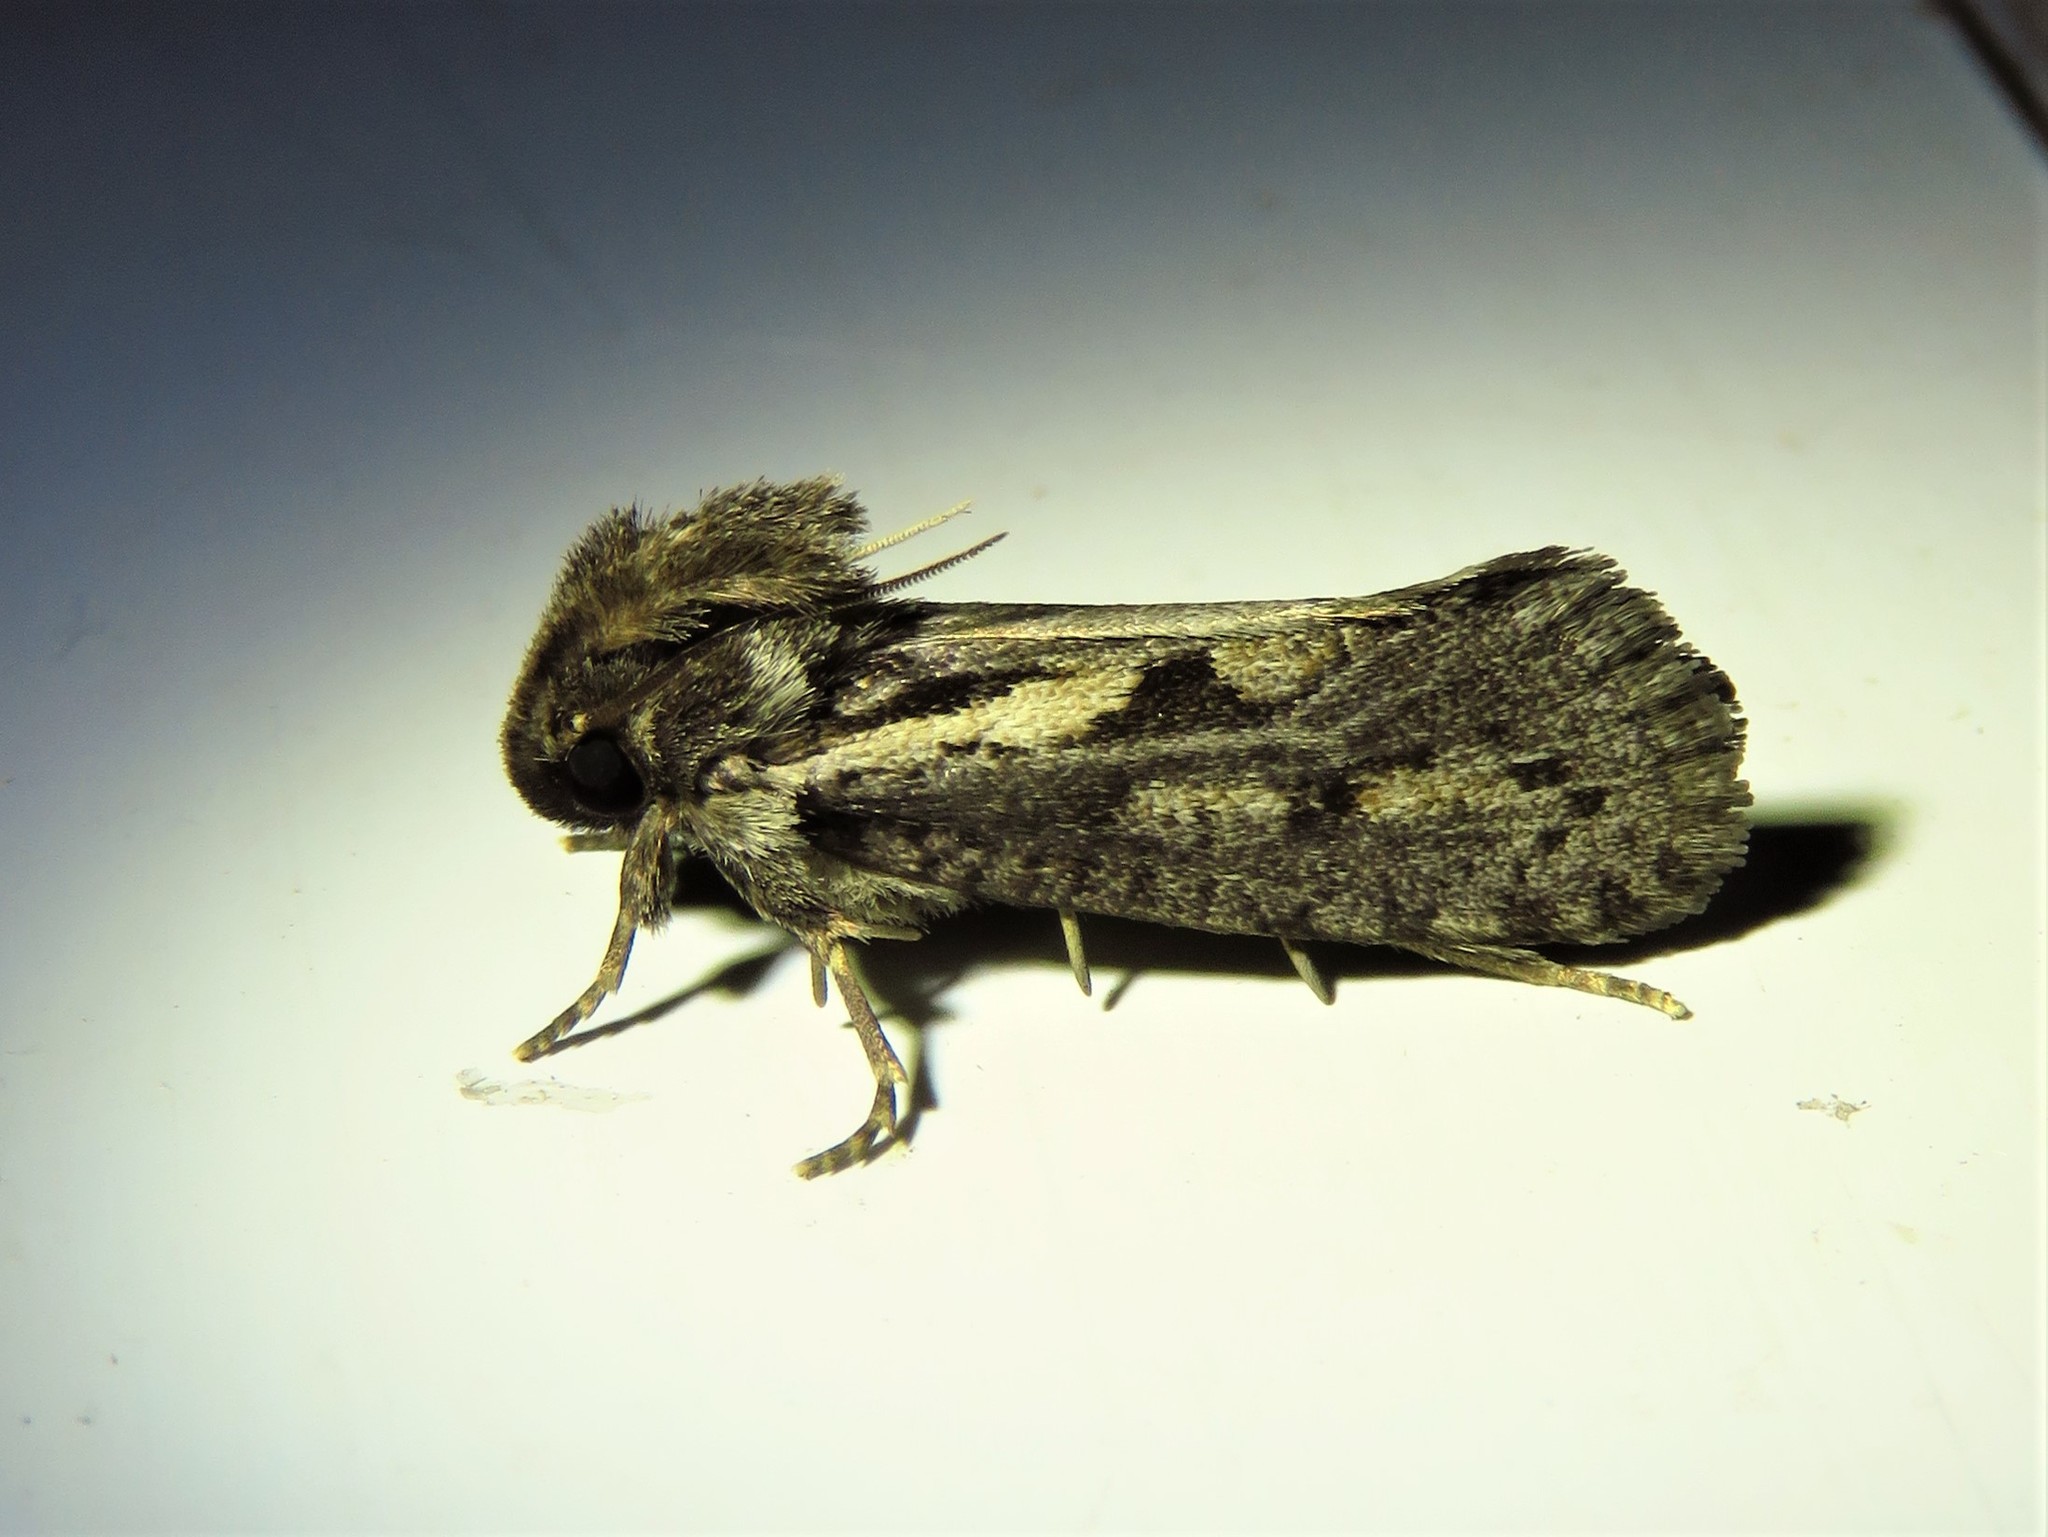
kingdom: Animalia
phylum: Arthropoda
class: Insecta
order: Lepidoptera
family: Tineidae
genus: Acrolophus
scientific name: Acrolophus popeanella
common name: Clemens' grass tubeworm moth
